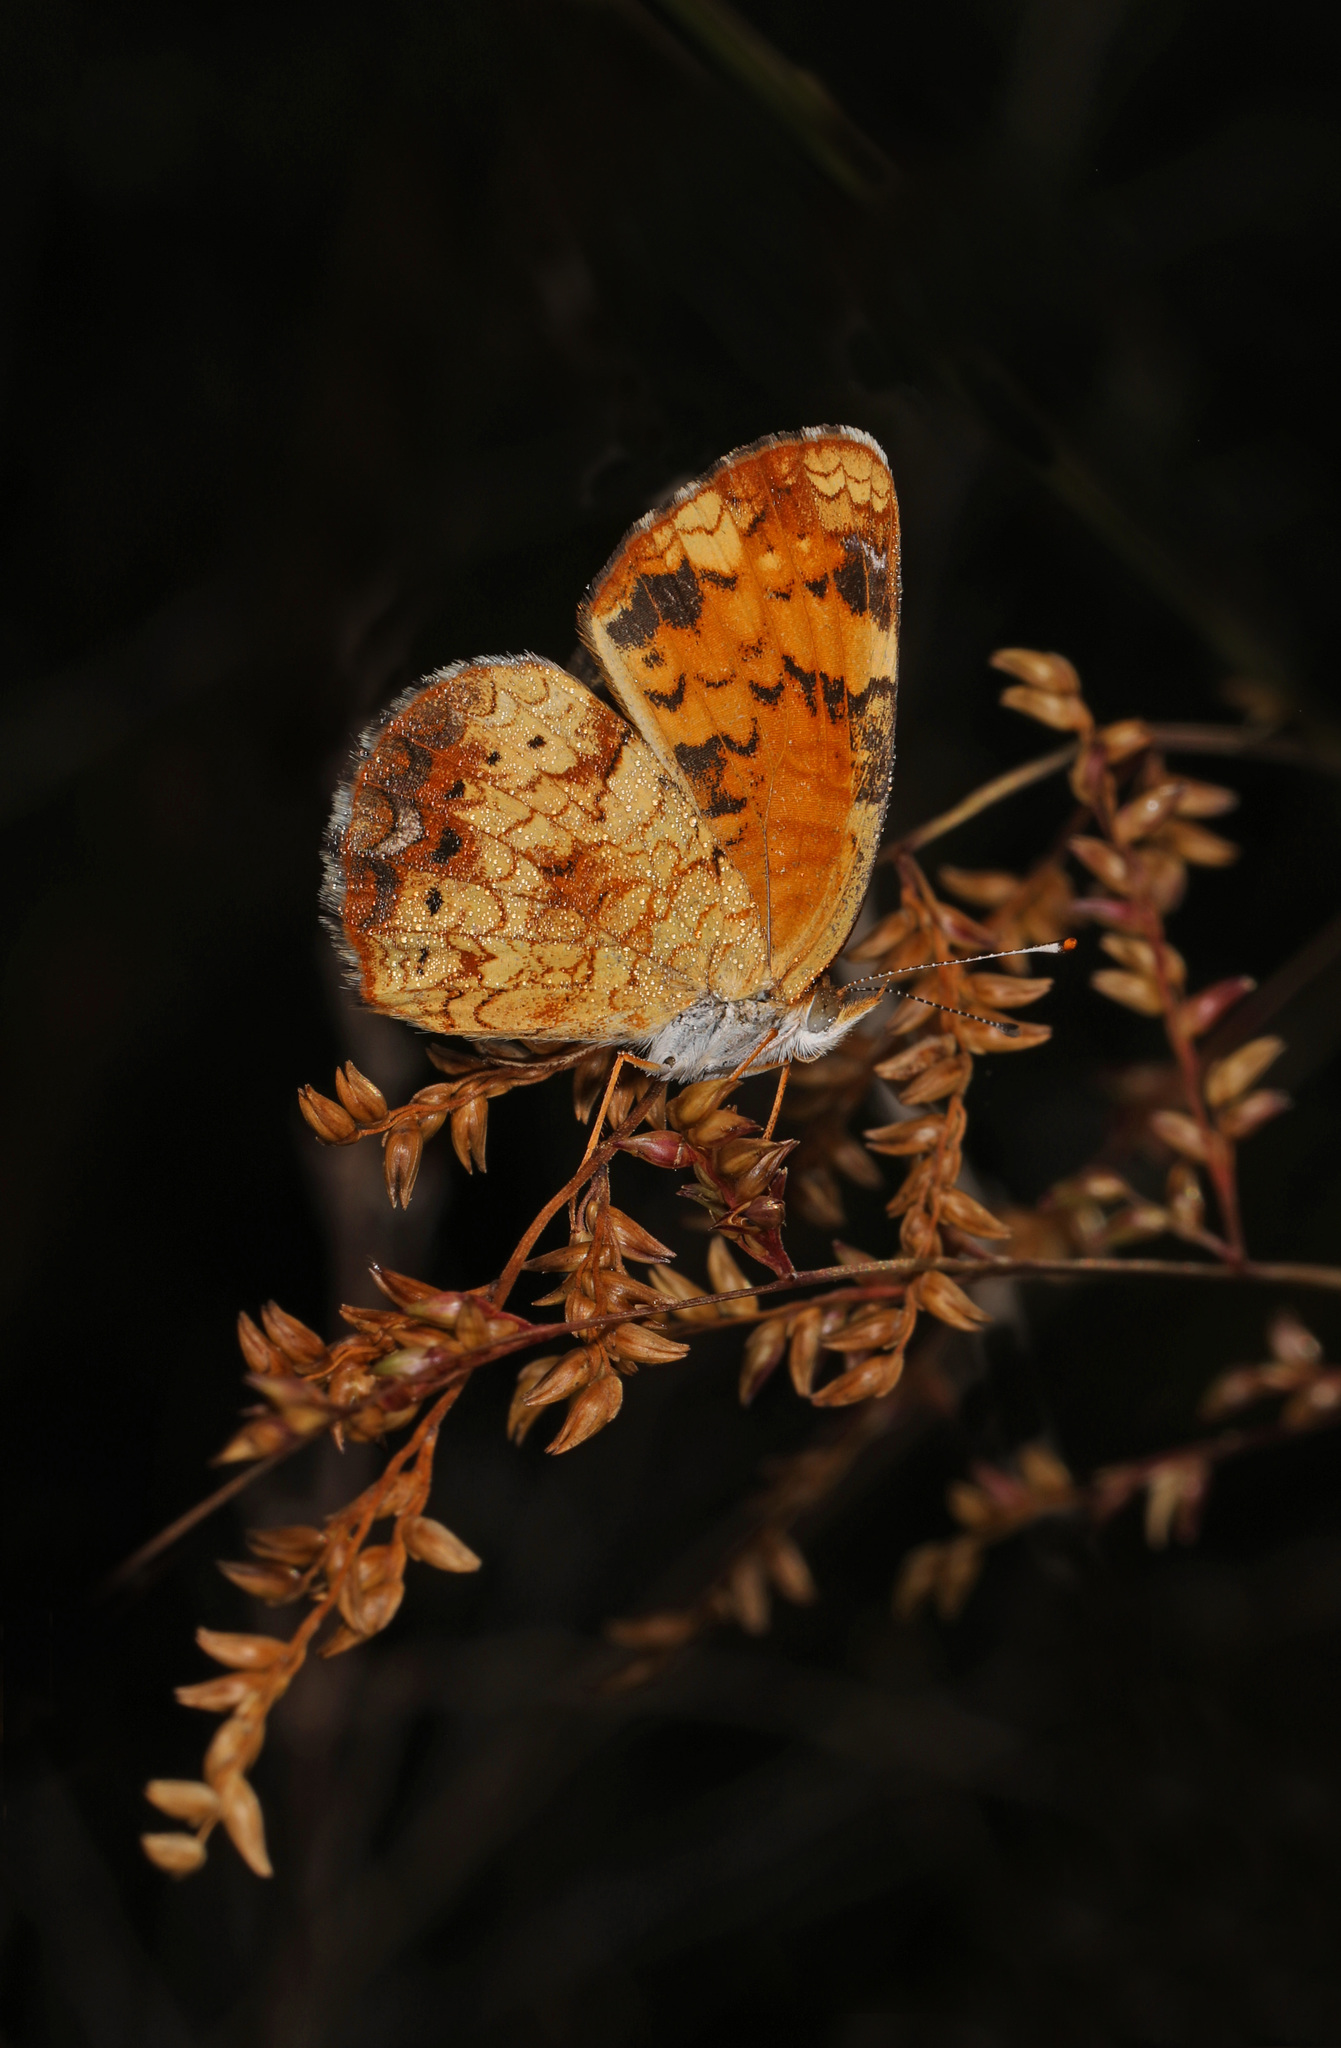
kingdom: Animalia
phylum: Arthropoda
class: Insecta
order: Lepidoptera
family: Nymphalidae
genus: Phyciodes
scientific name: Phyciodes tharos
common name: Pearl crescent
